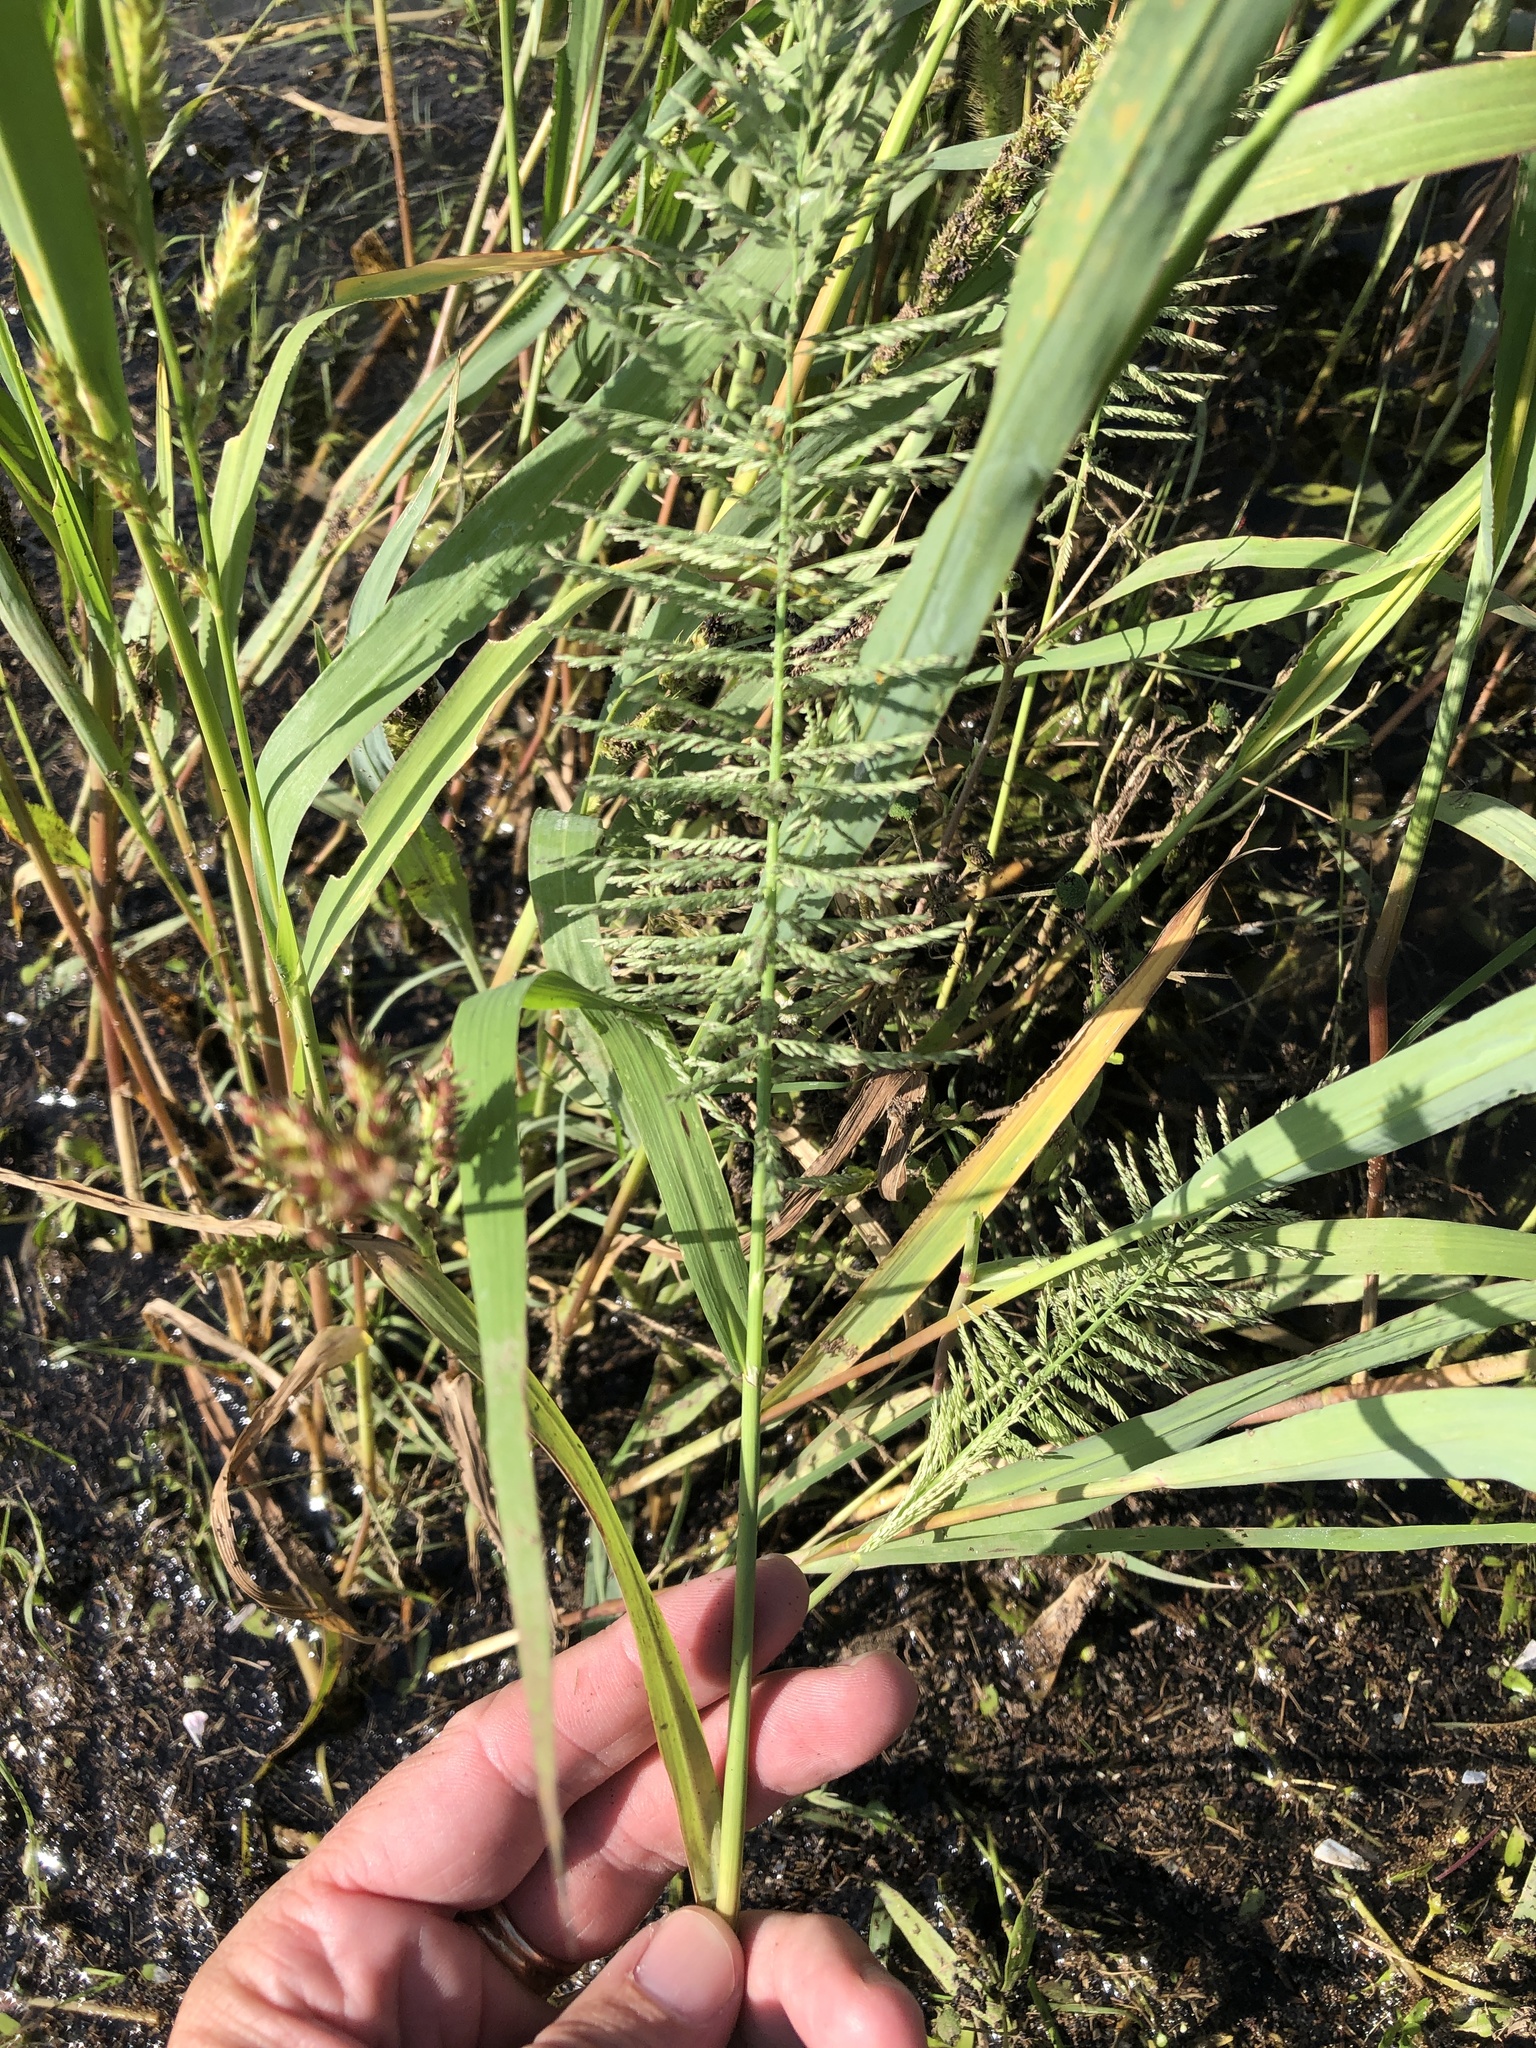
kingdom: Plantae
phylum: Tracheophyta
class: Liliopsida
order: Poales
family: Poaceae
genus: Leptochloa
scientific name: Leptochloa panicoides
